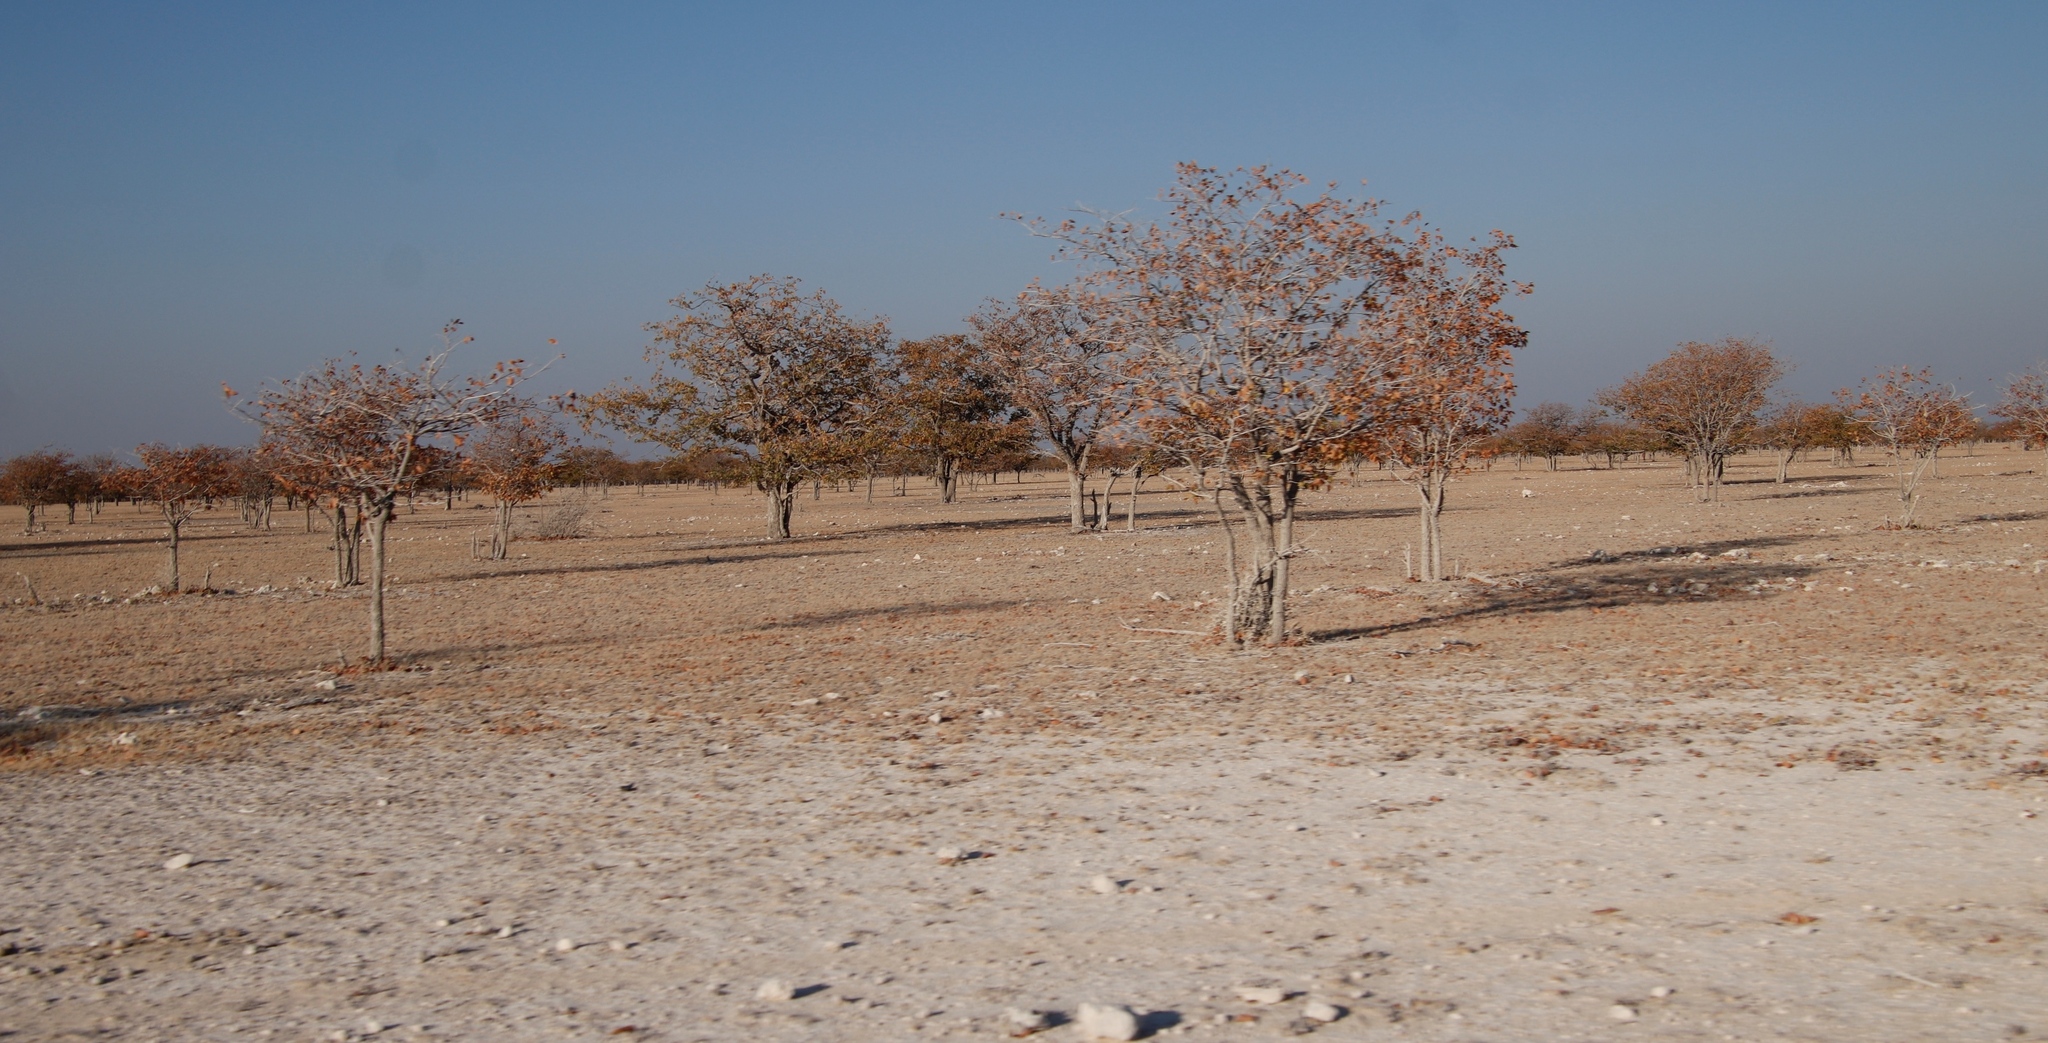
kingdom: Plantae
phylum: Tracheophyta
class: Magnoliopsida
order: Fabales
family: Fabaceae
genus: Colophospermum
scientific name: Colophospermum mopane
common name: Mopane
